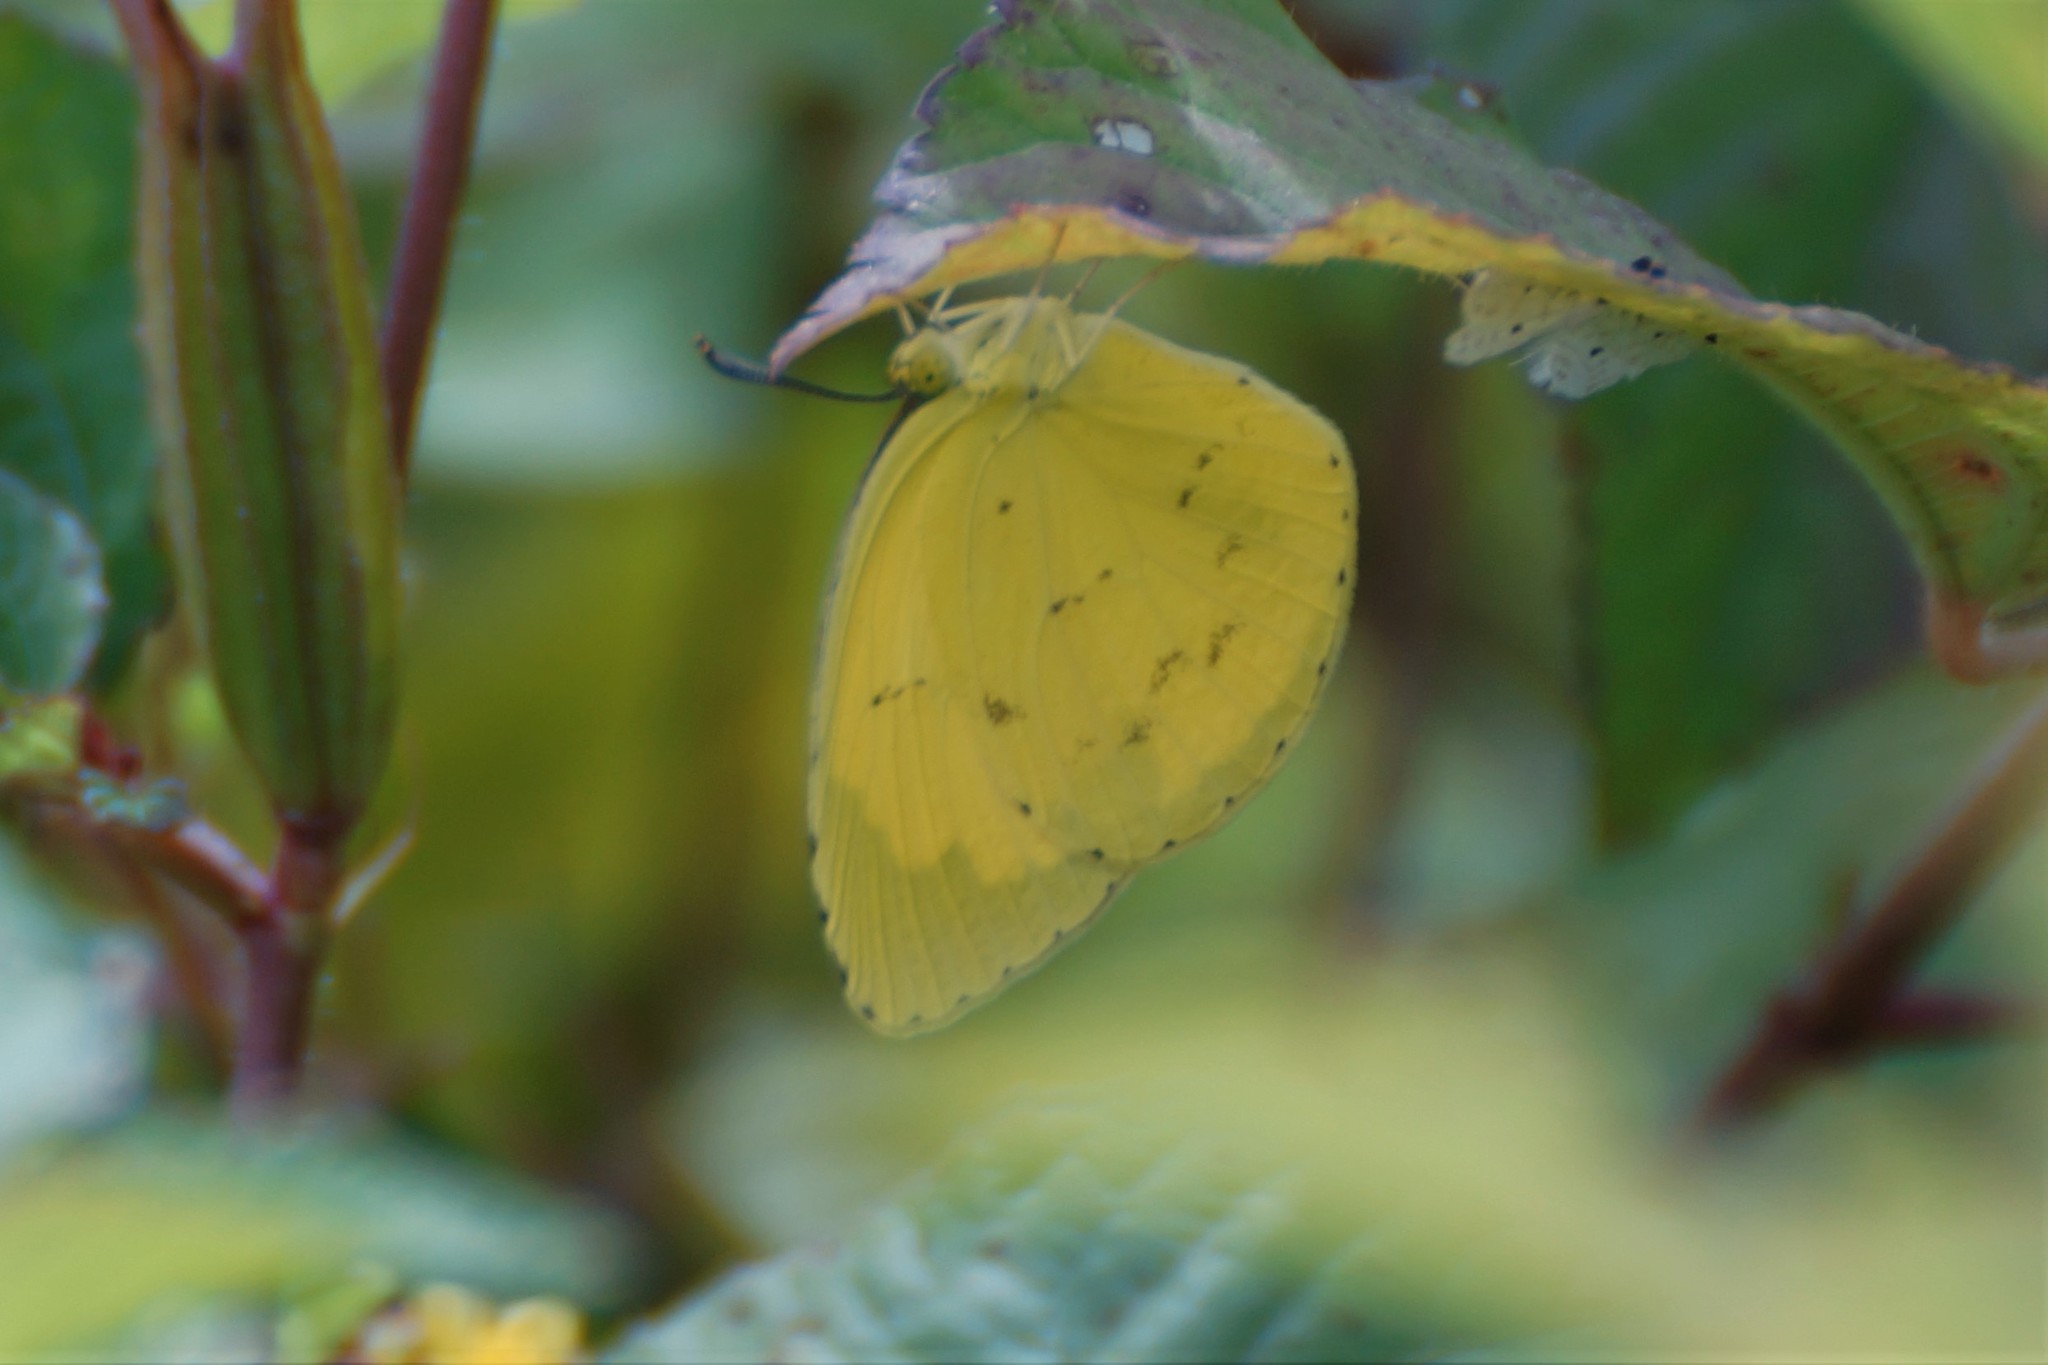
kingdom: Animalia
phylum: Arthropoda
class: Insecta
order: Lepidoptera
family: Pieridae
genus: Eurema
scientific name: Eurema hecabe
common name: Pale grass yellow
